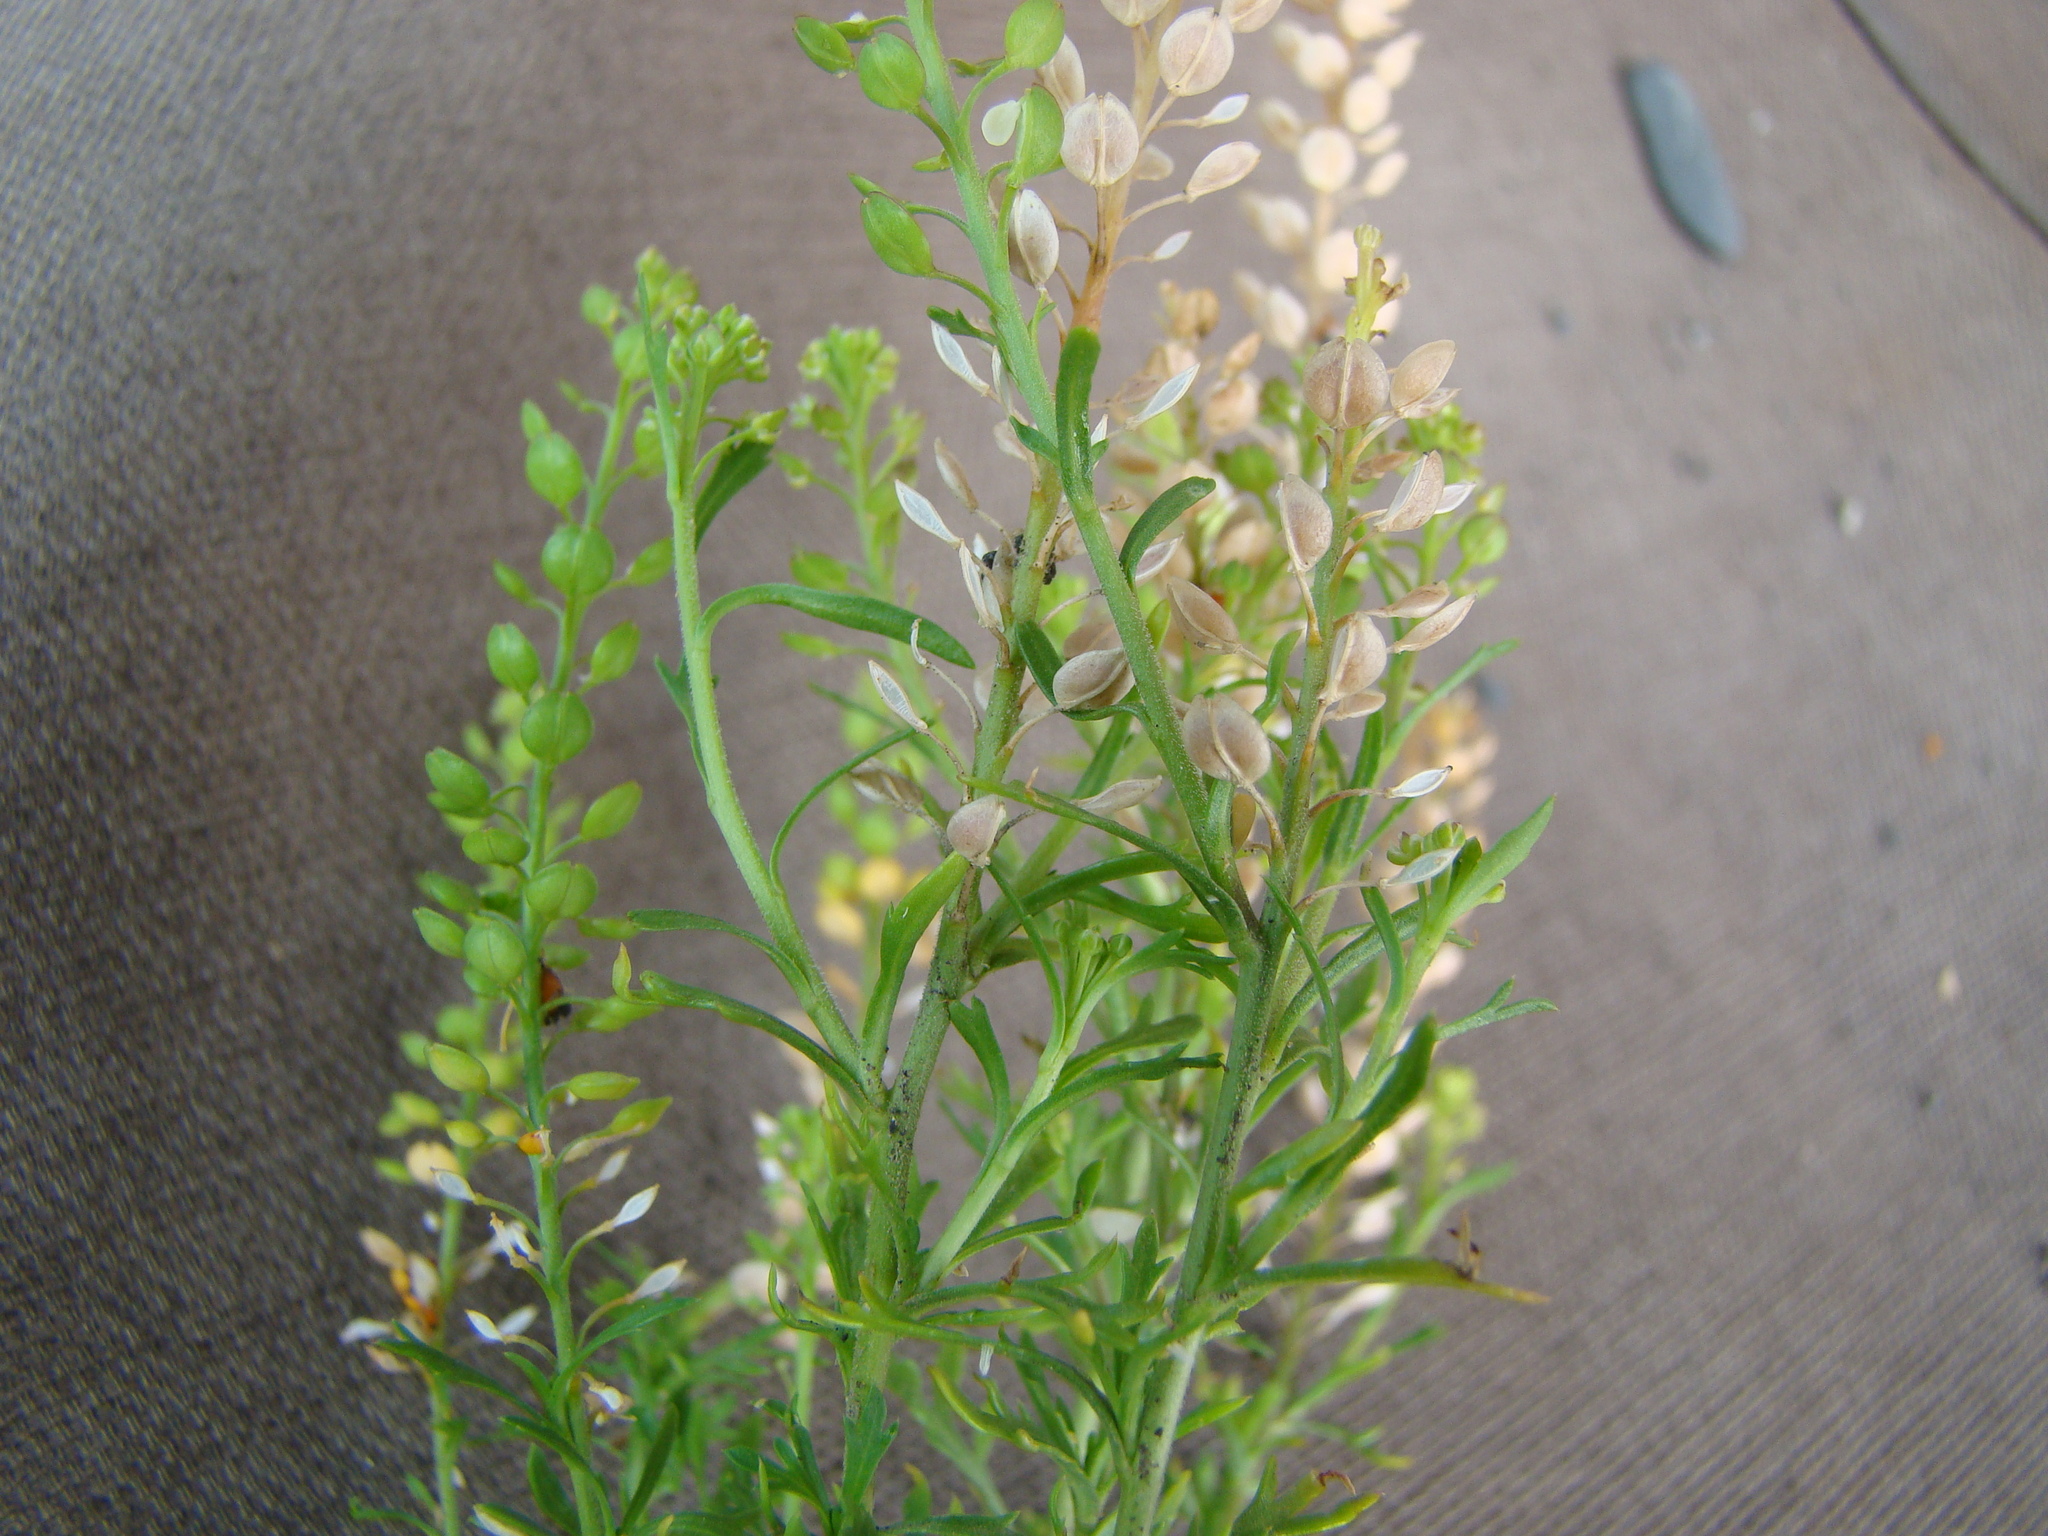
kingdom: Plantae
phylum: Tracheophyta
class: Magnoliopsida
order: Brassicales
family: Brassicaceae
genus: Lepidium
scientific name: Lepidium bonariense
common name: Argentine pepperwort
